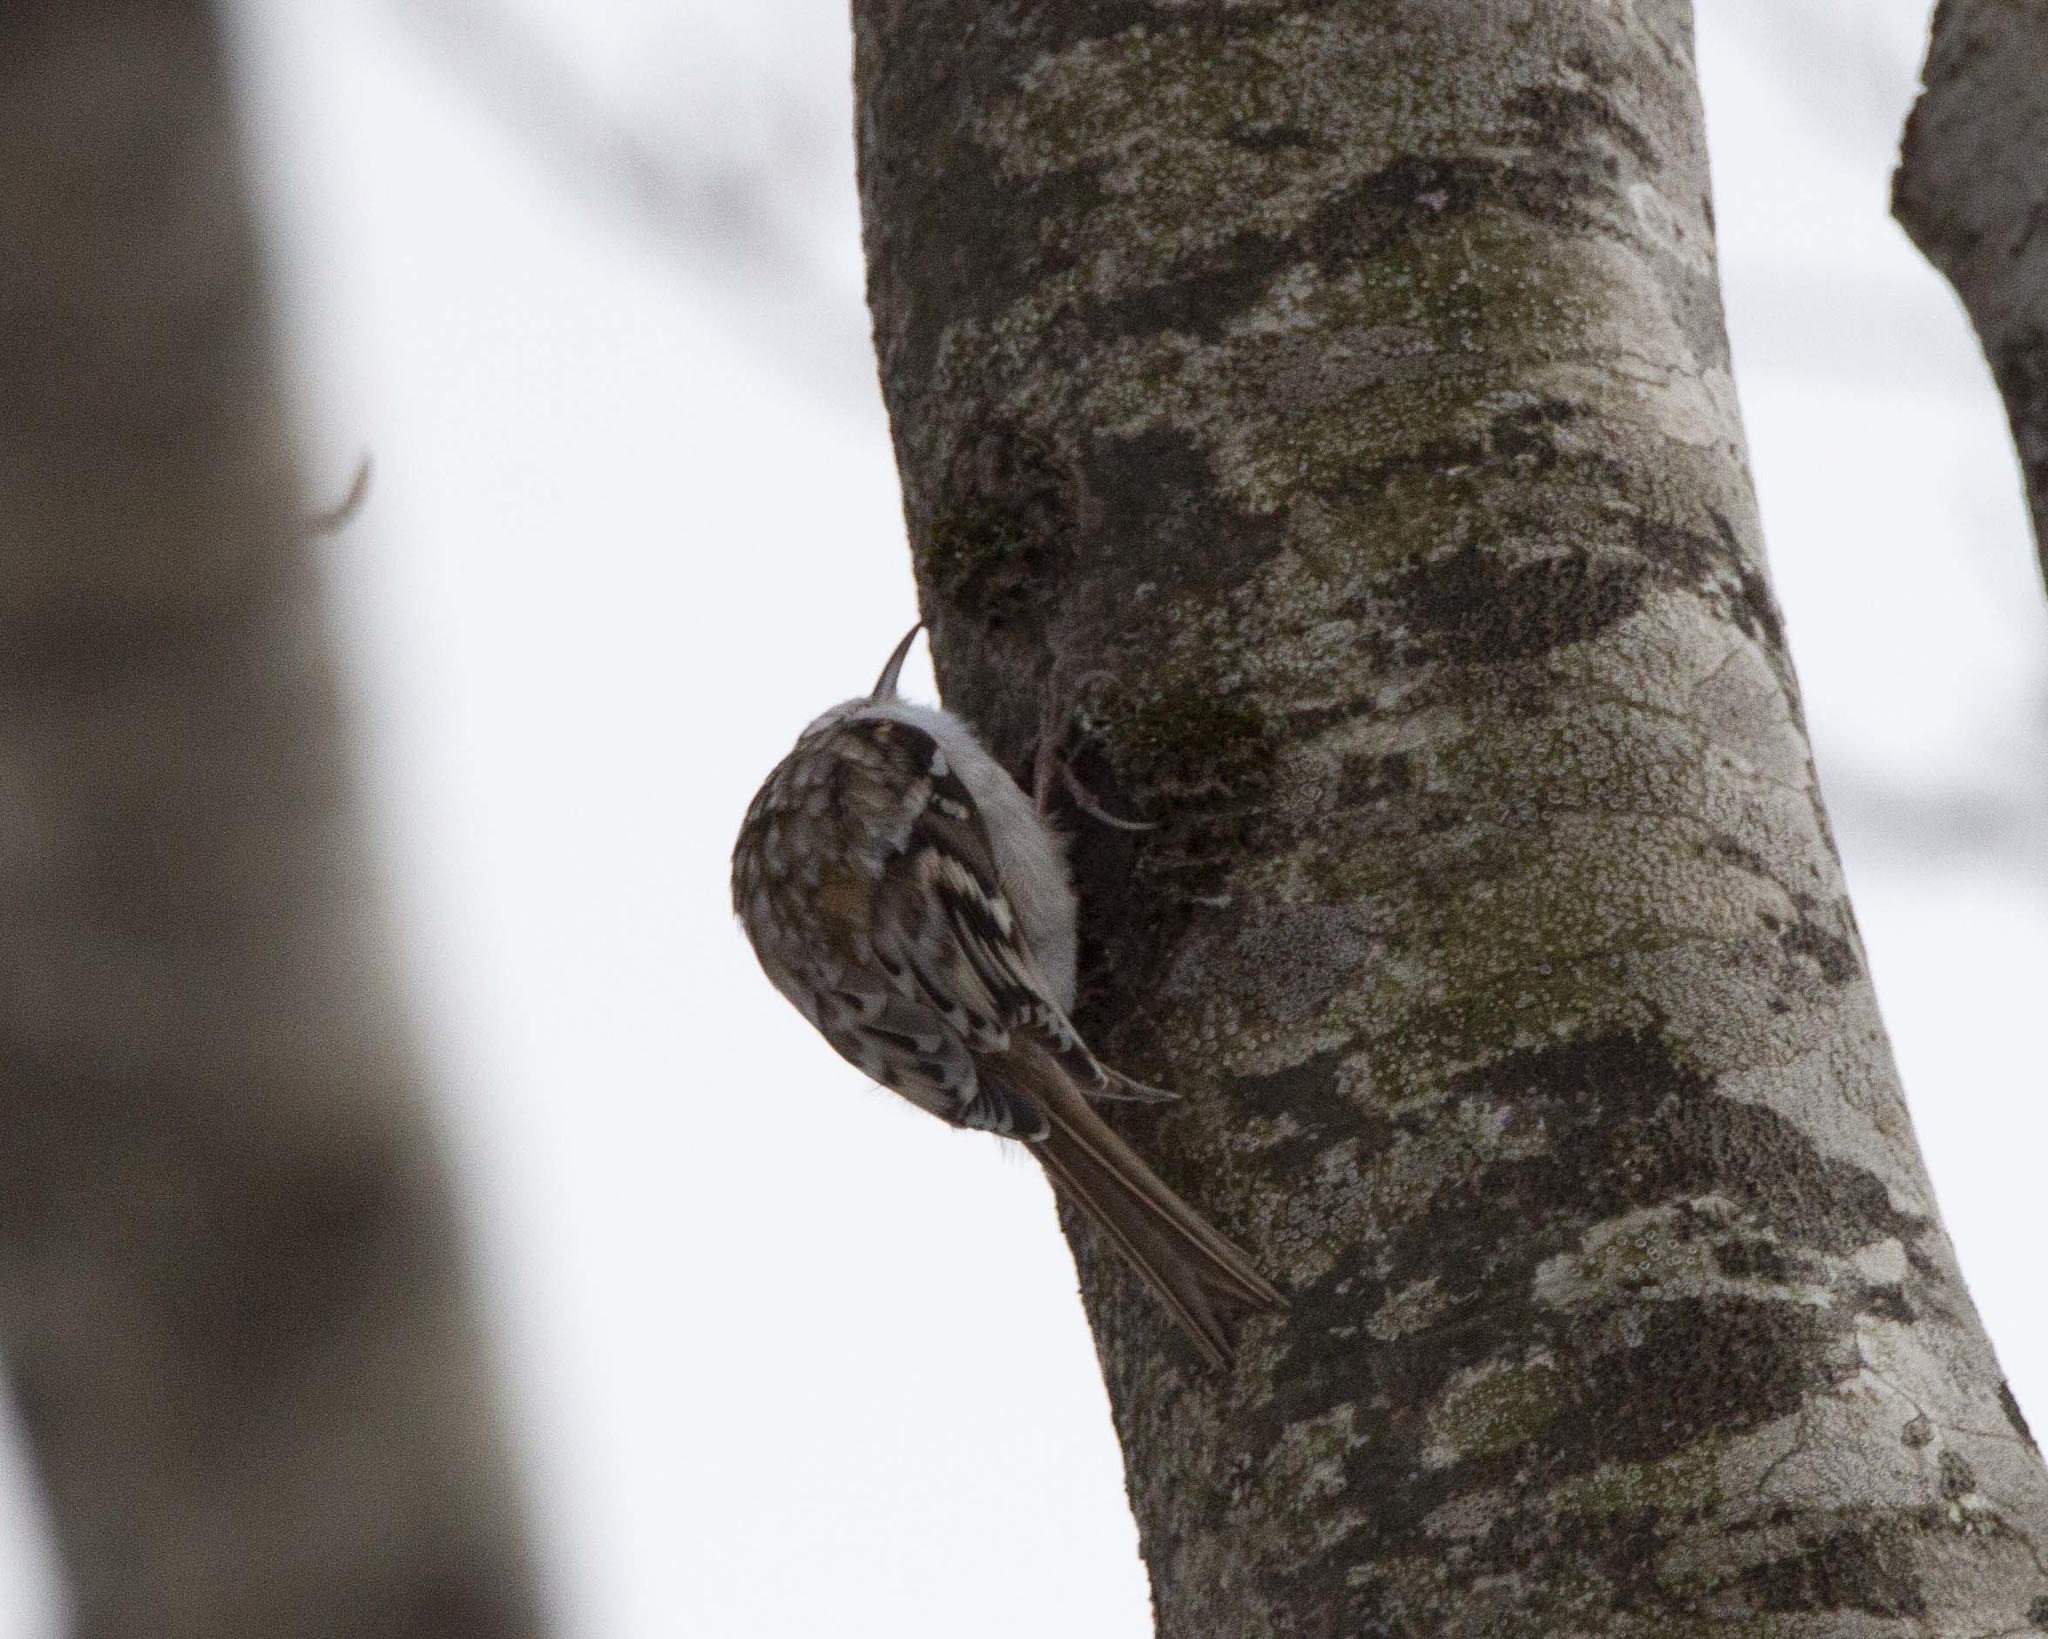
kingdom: Animalia
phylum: Chordata
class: Aves
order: Passeriformes
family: Certhiidae
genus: Certhia
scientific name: Certhia familiaris
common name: Eurasian treecreeper
